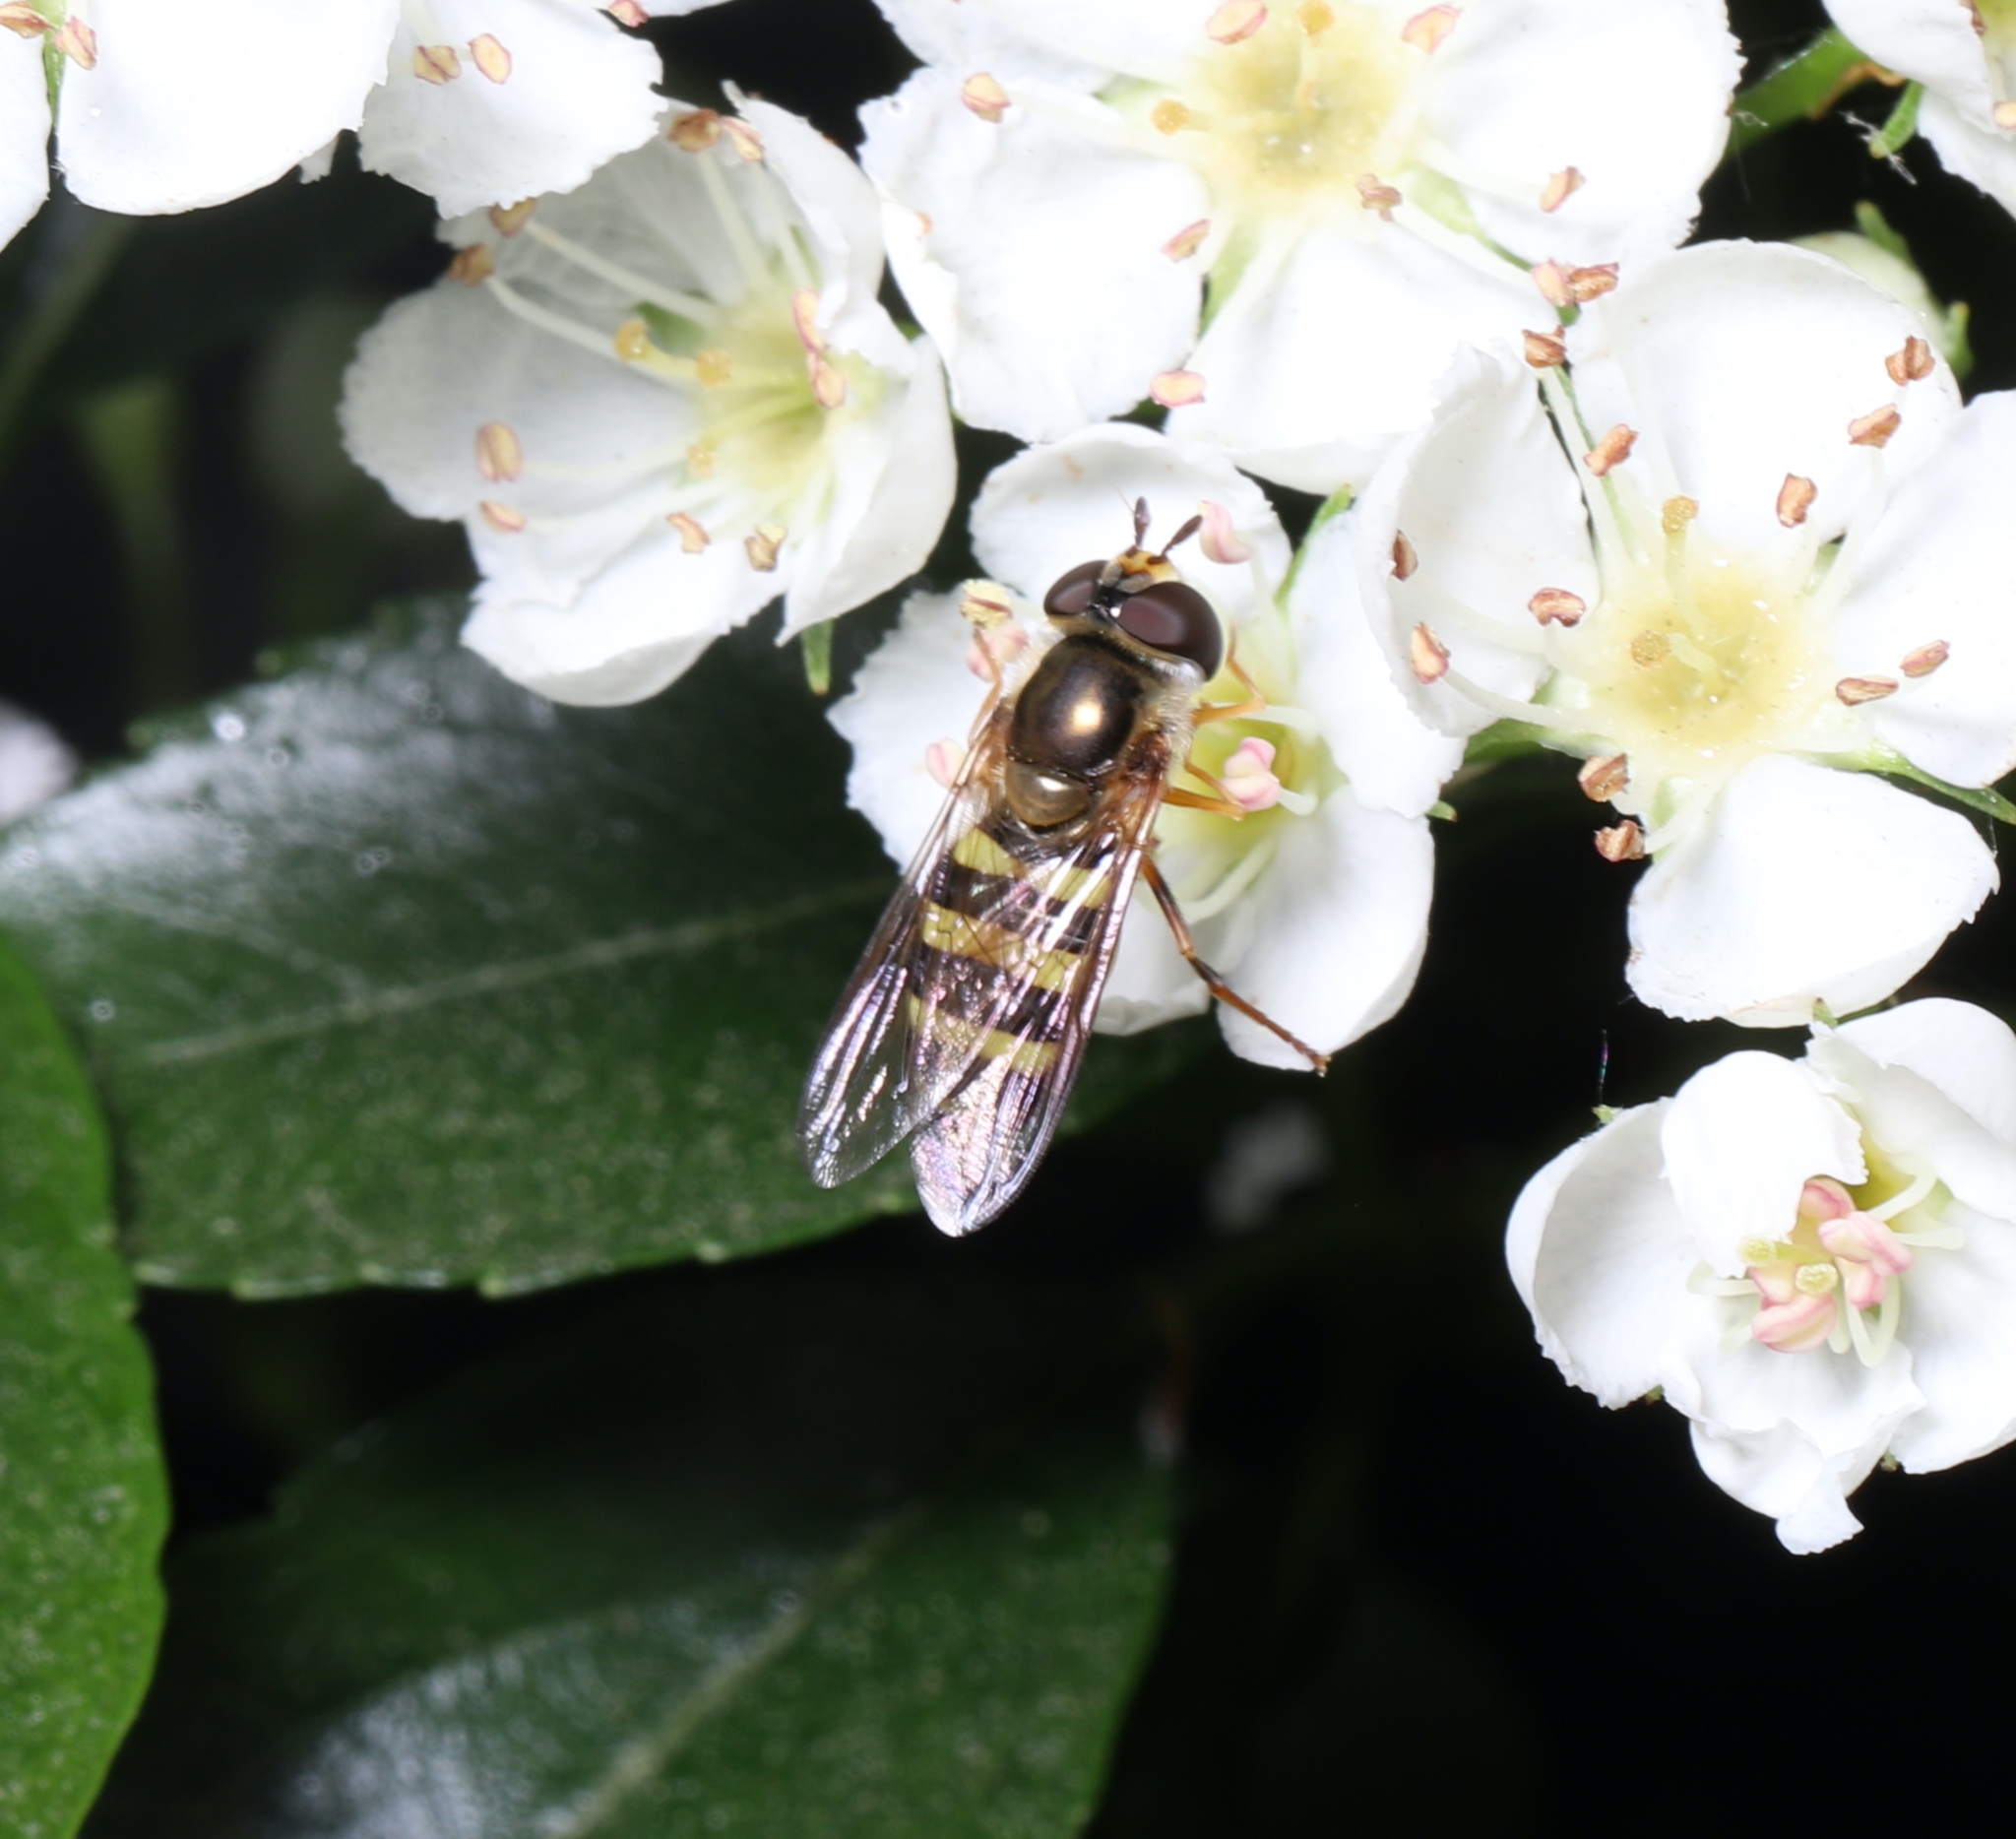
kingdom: Animalia
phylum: Arthropoda
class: Insecta
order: Diptera
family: Syrphidae
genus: Eupeodes
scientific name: Eupeodes
